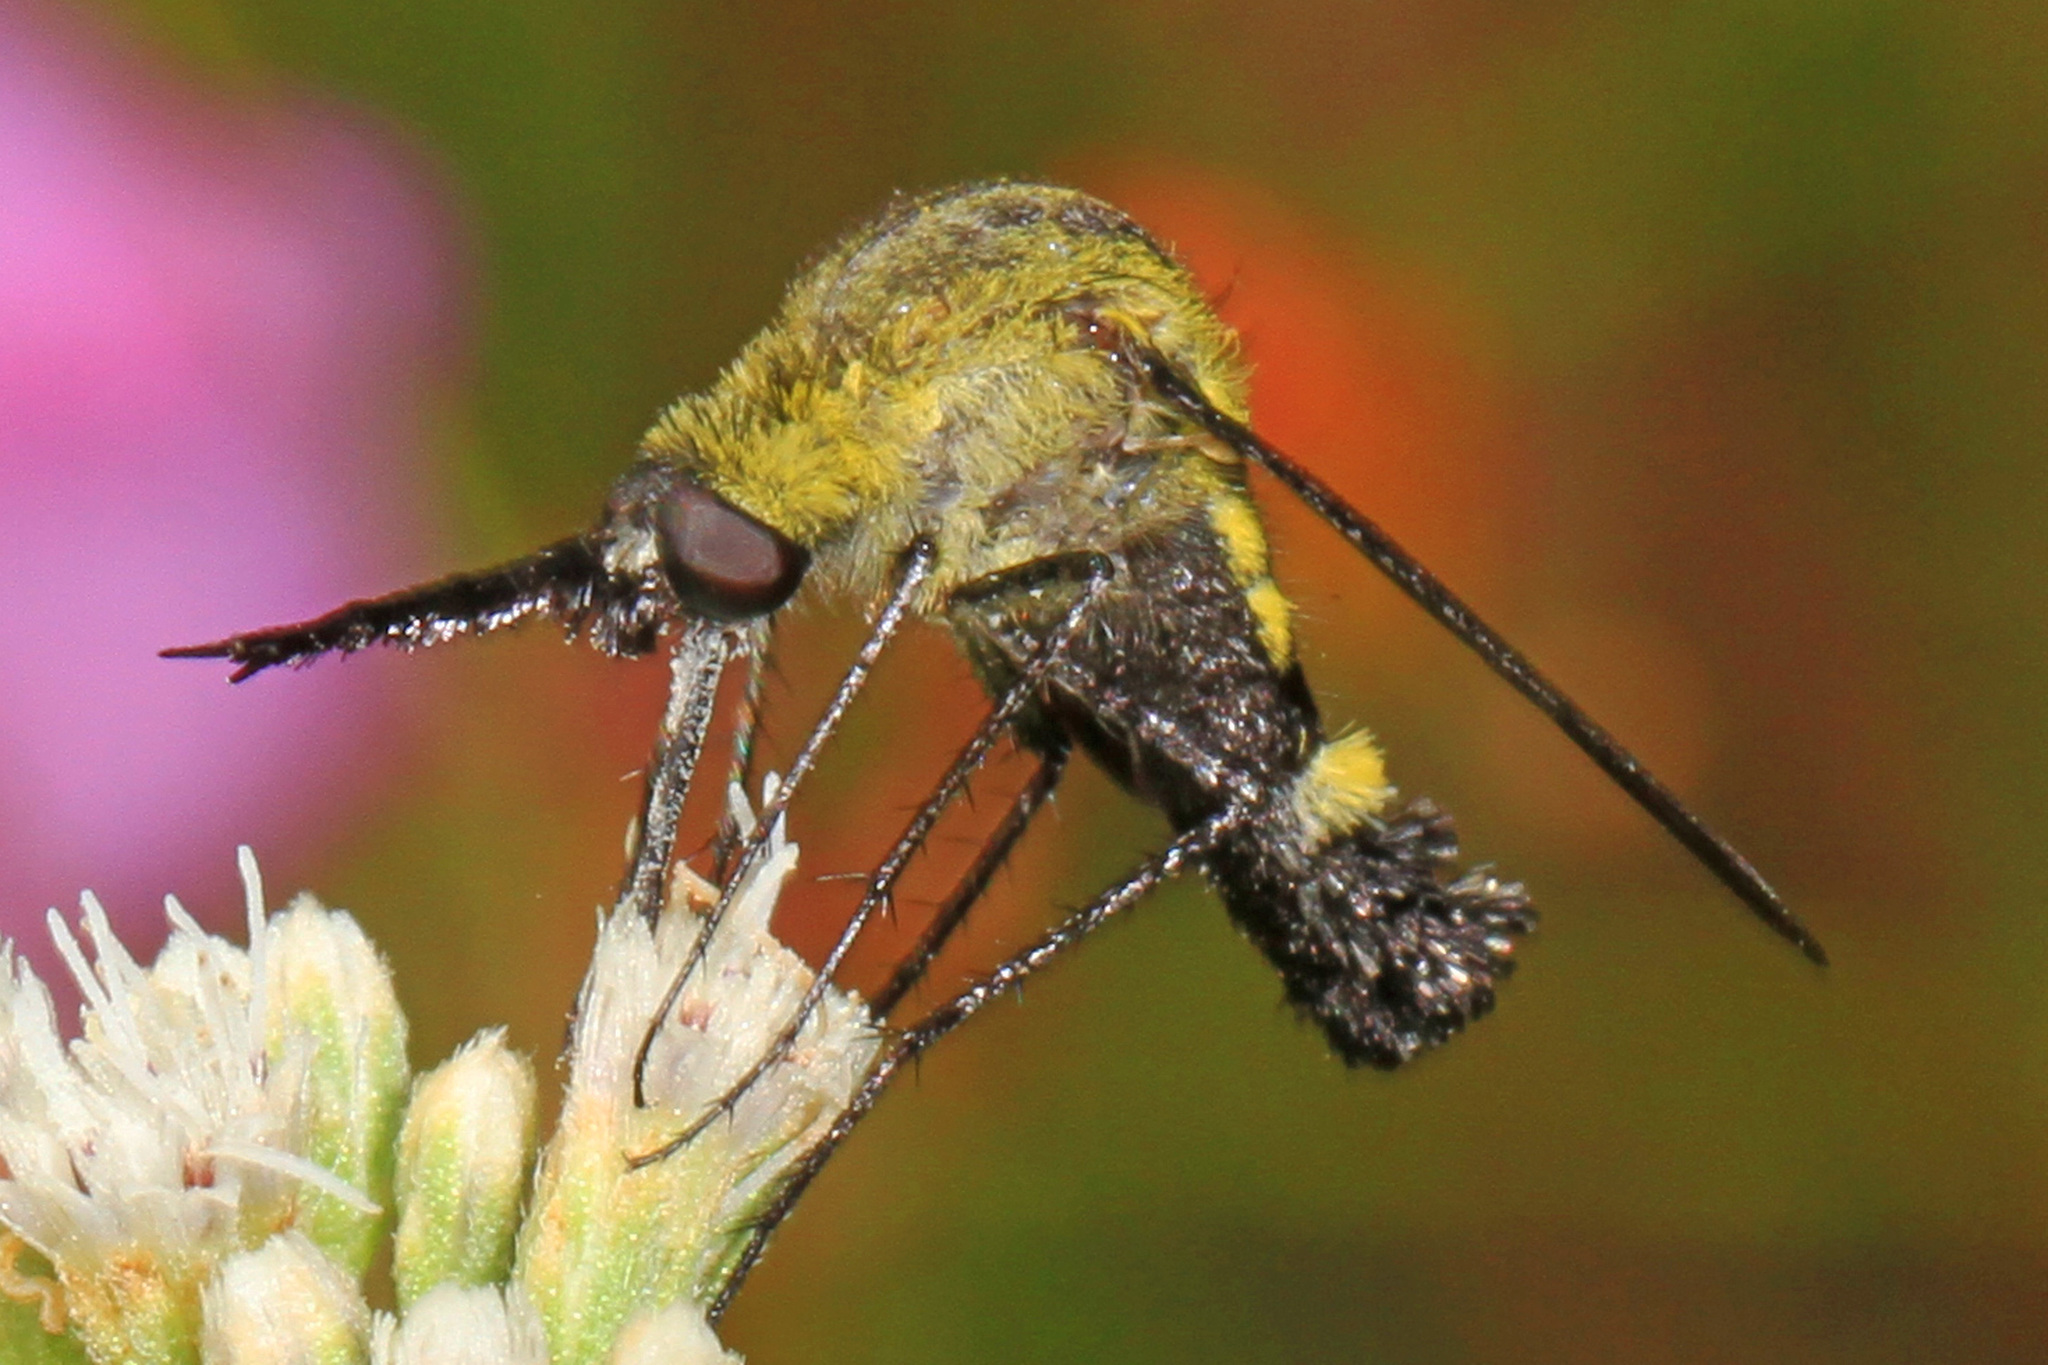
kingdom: Animalia
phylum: Arthropoda
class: Insecta
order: Diptera
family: Bombyliidae
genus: Lepidophora
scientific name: Lepidophora lepidocera
